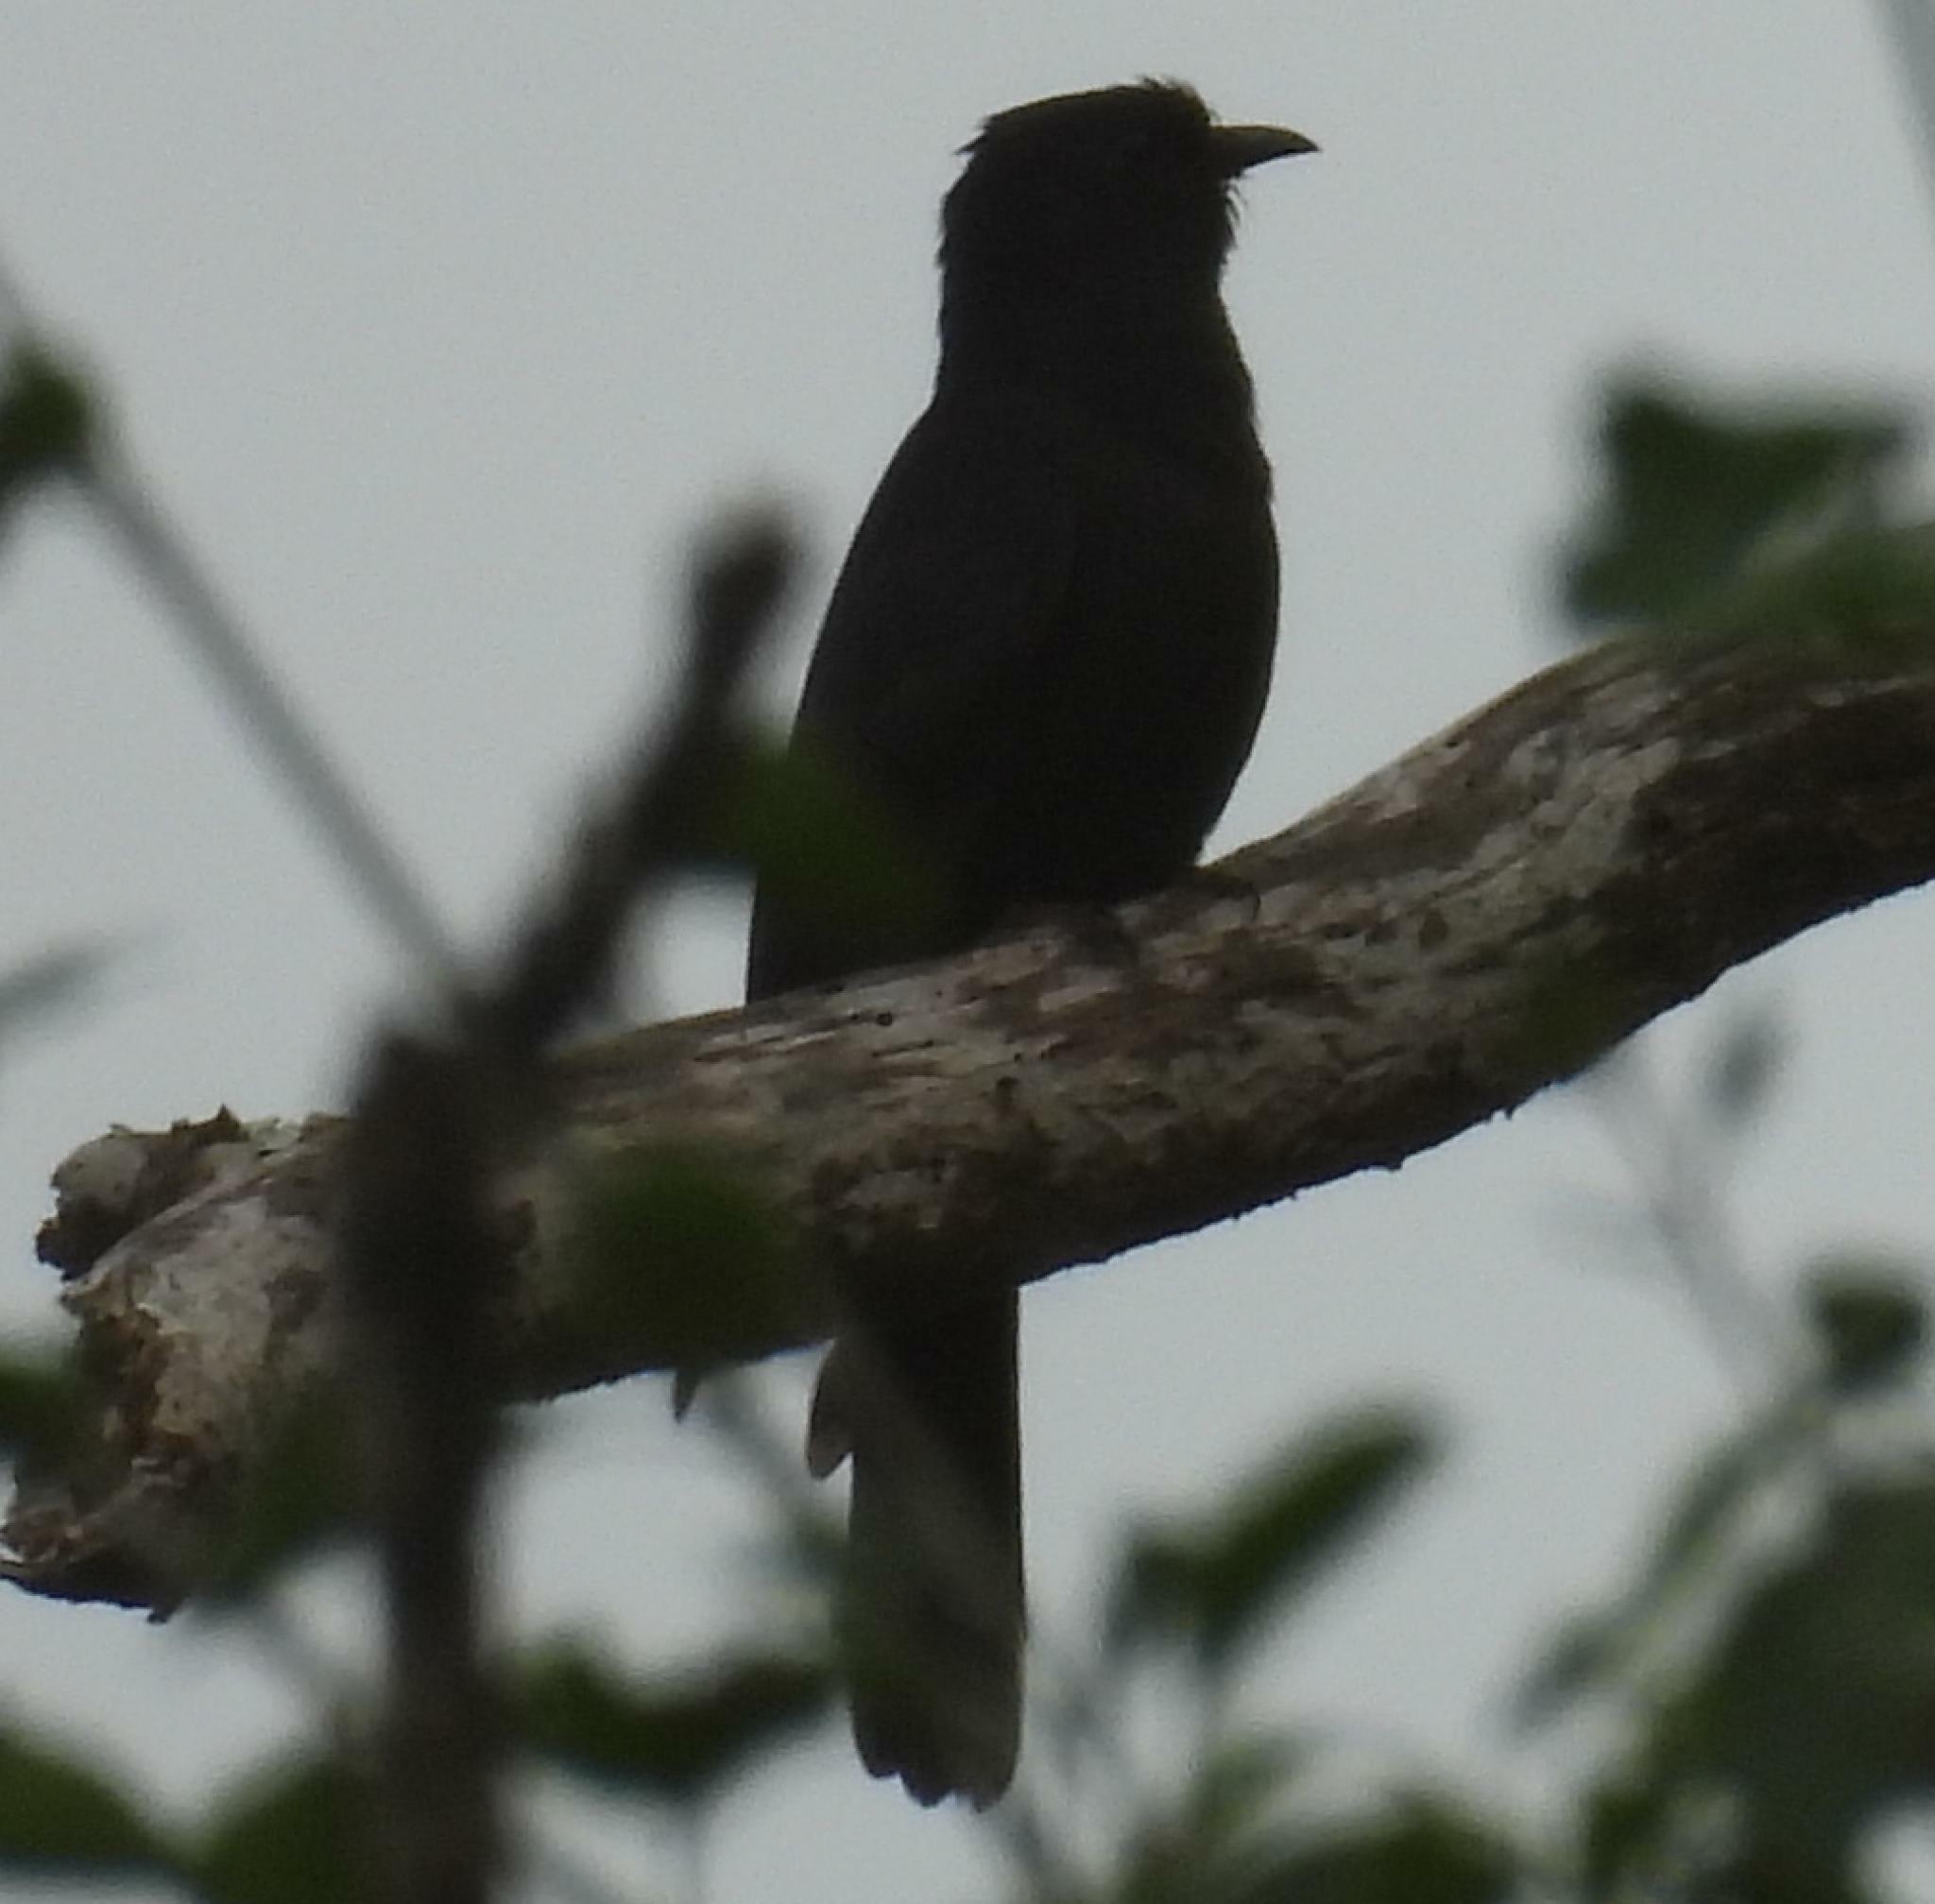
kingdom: Animalia
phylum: Chordata
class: Aves
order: Cuculiformes
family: Cuculidae
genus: Cuculus
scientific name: Cuculus clamosus
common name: Black cuckoo
